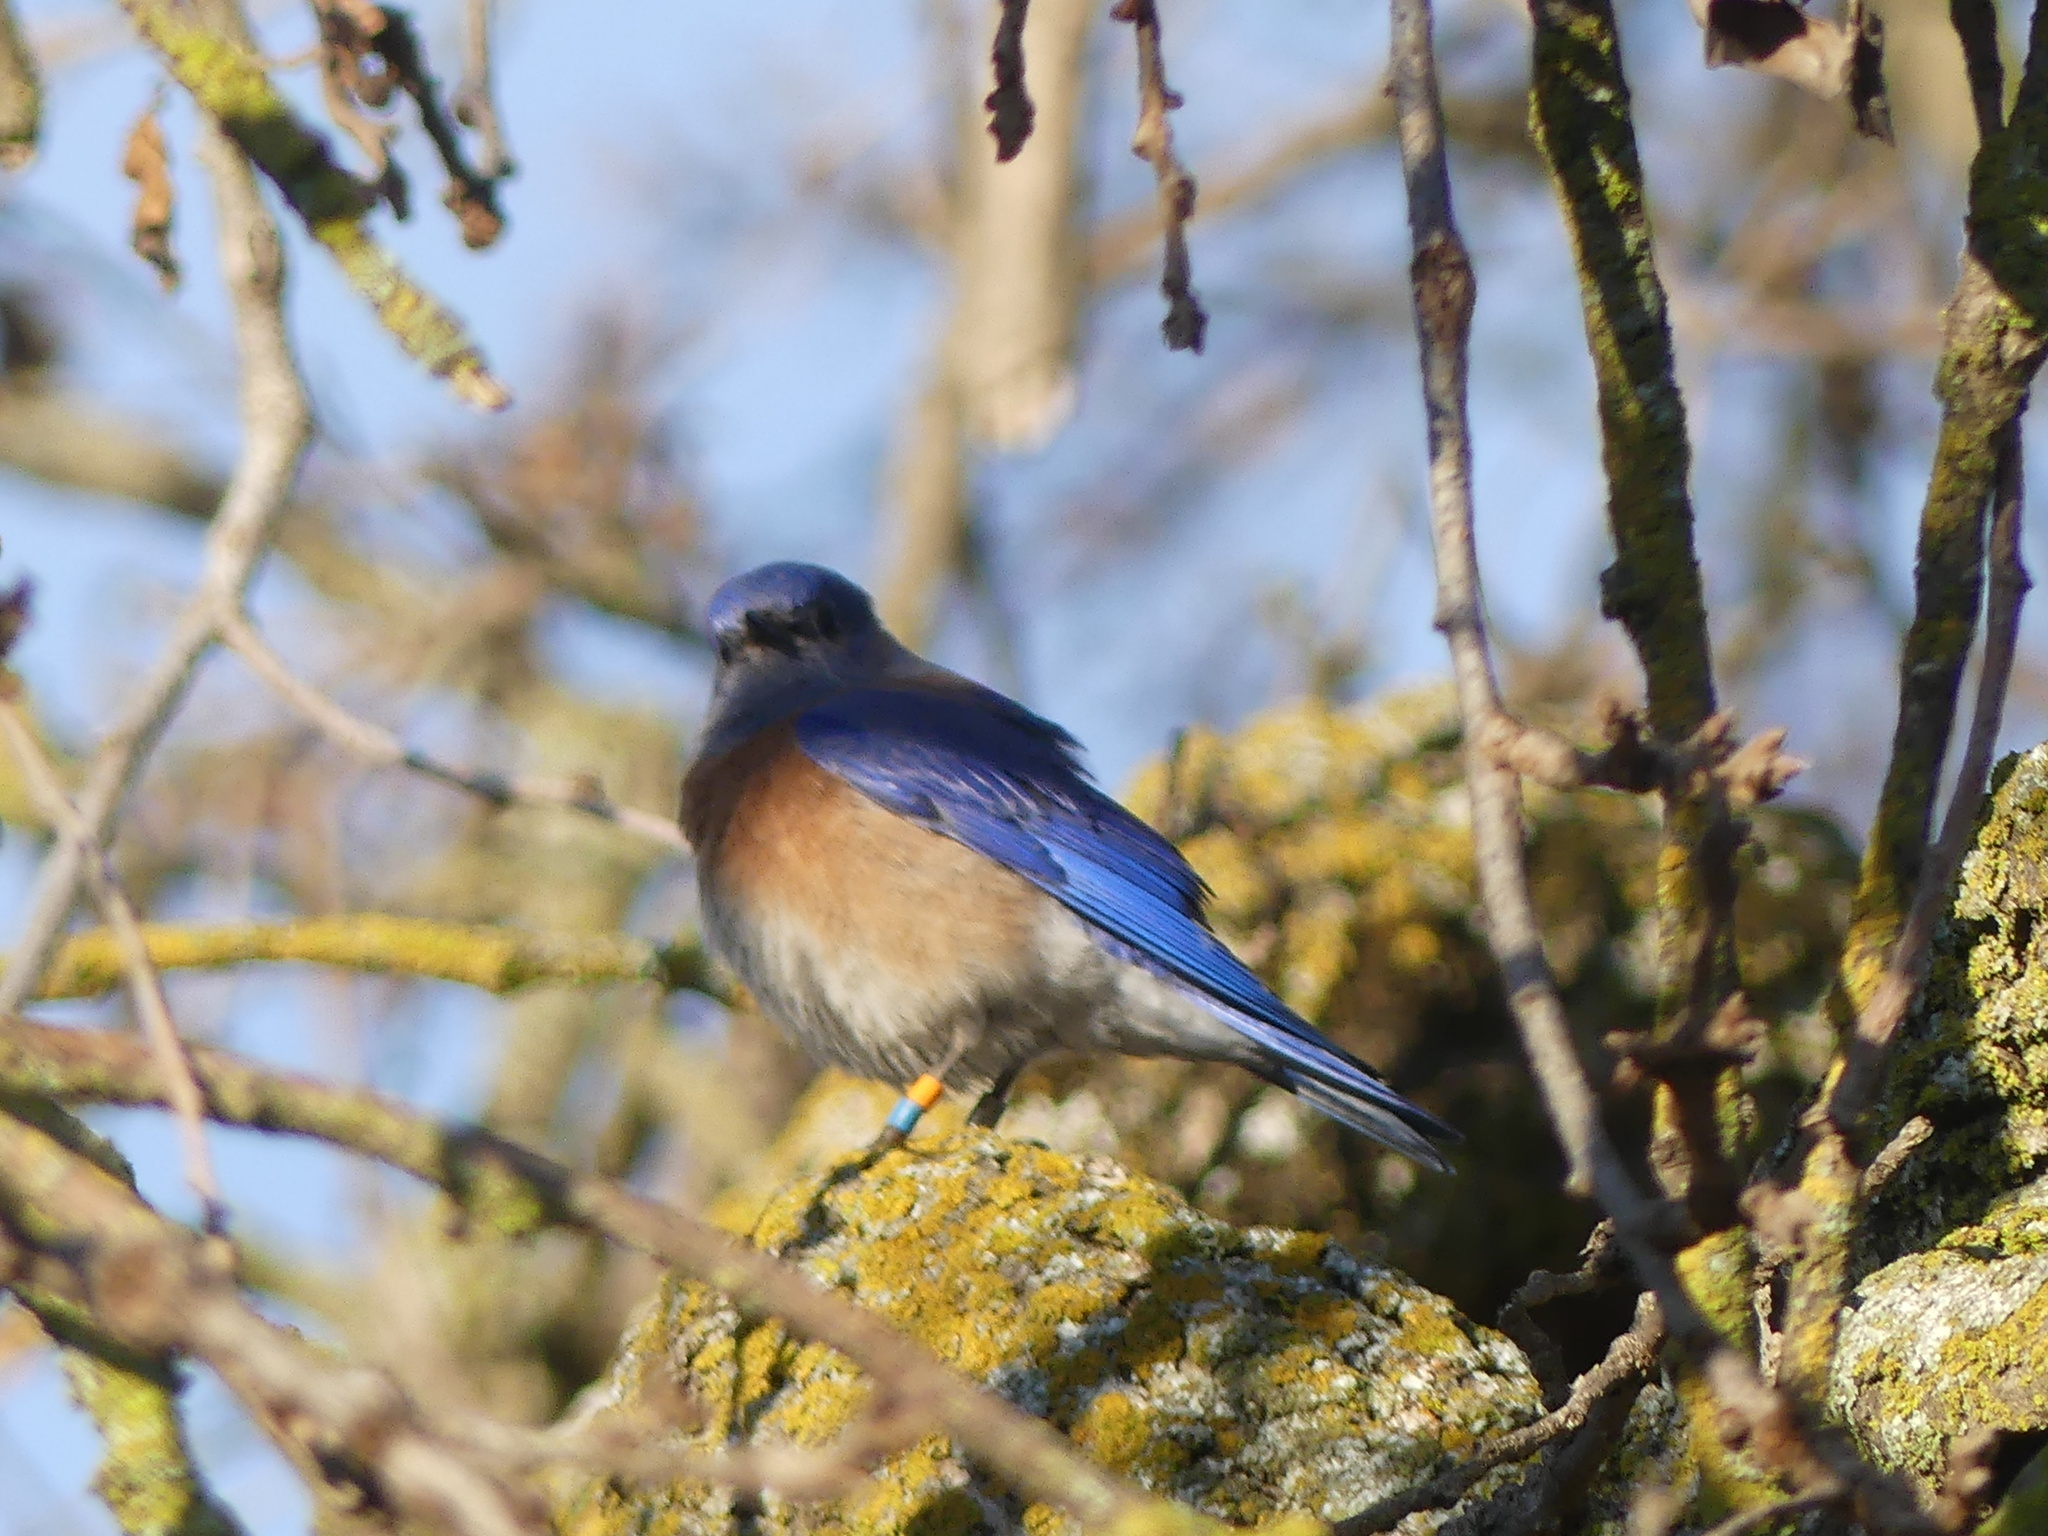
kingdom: Animalia
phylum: Chordata
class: Aves
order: Passeriformes
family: Turdidae
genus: Sialia
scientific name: Sialia mexicana
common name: Western bluebird
